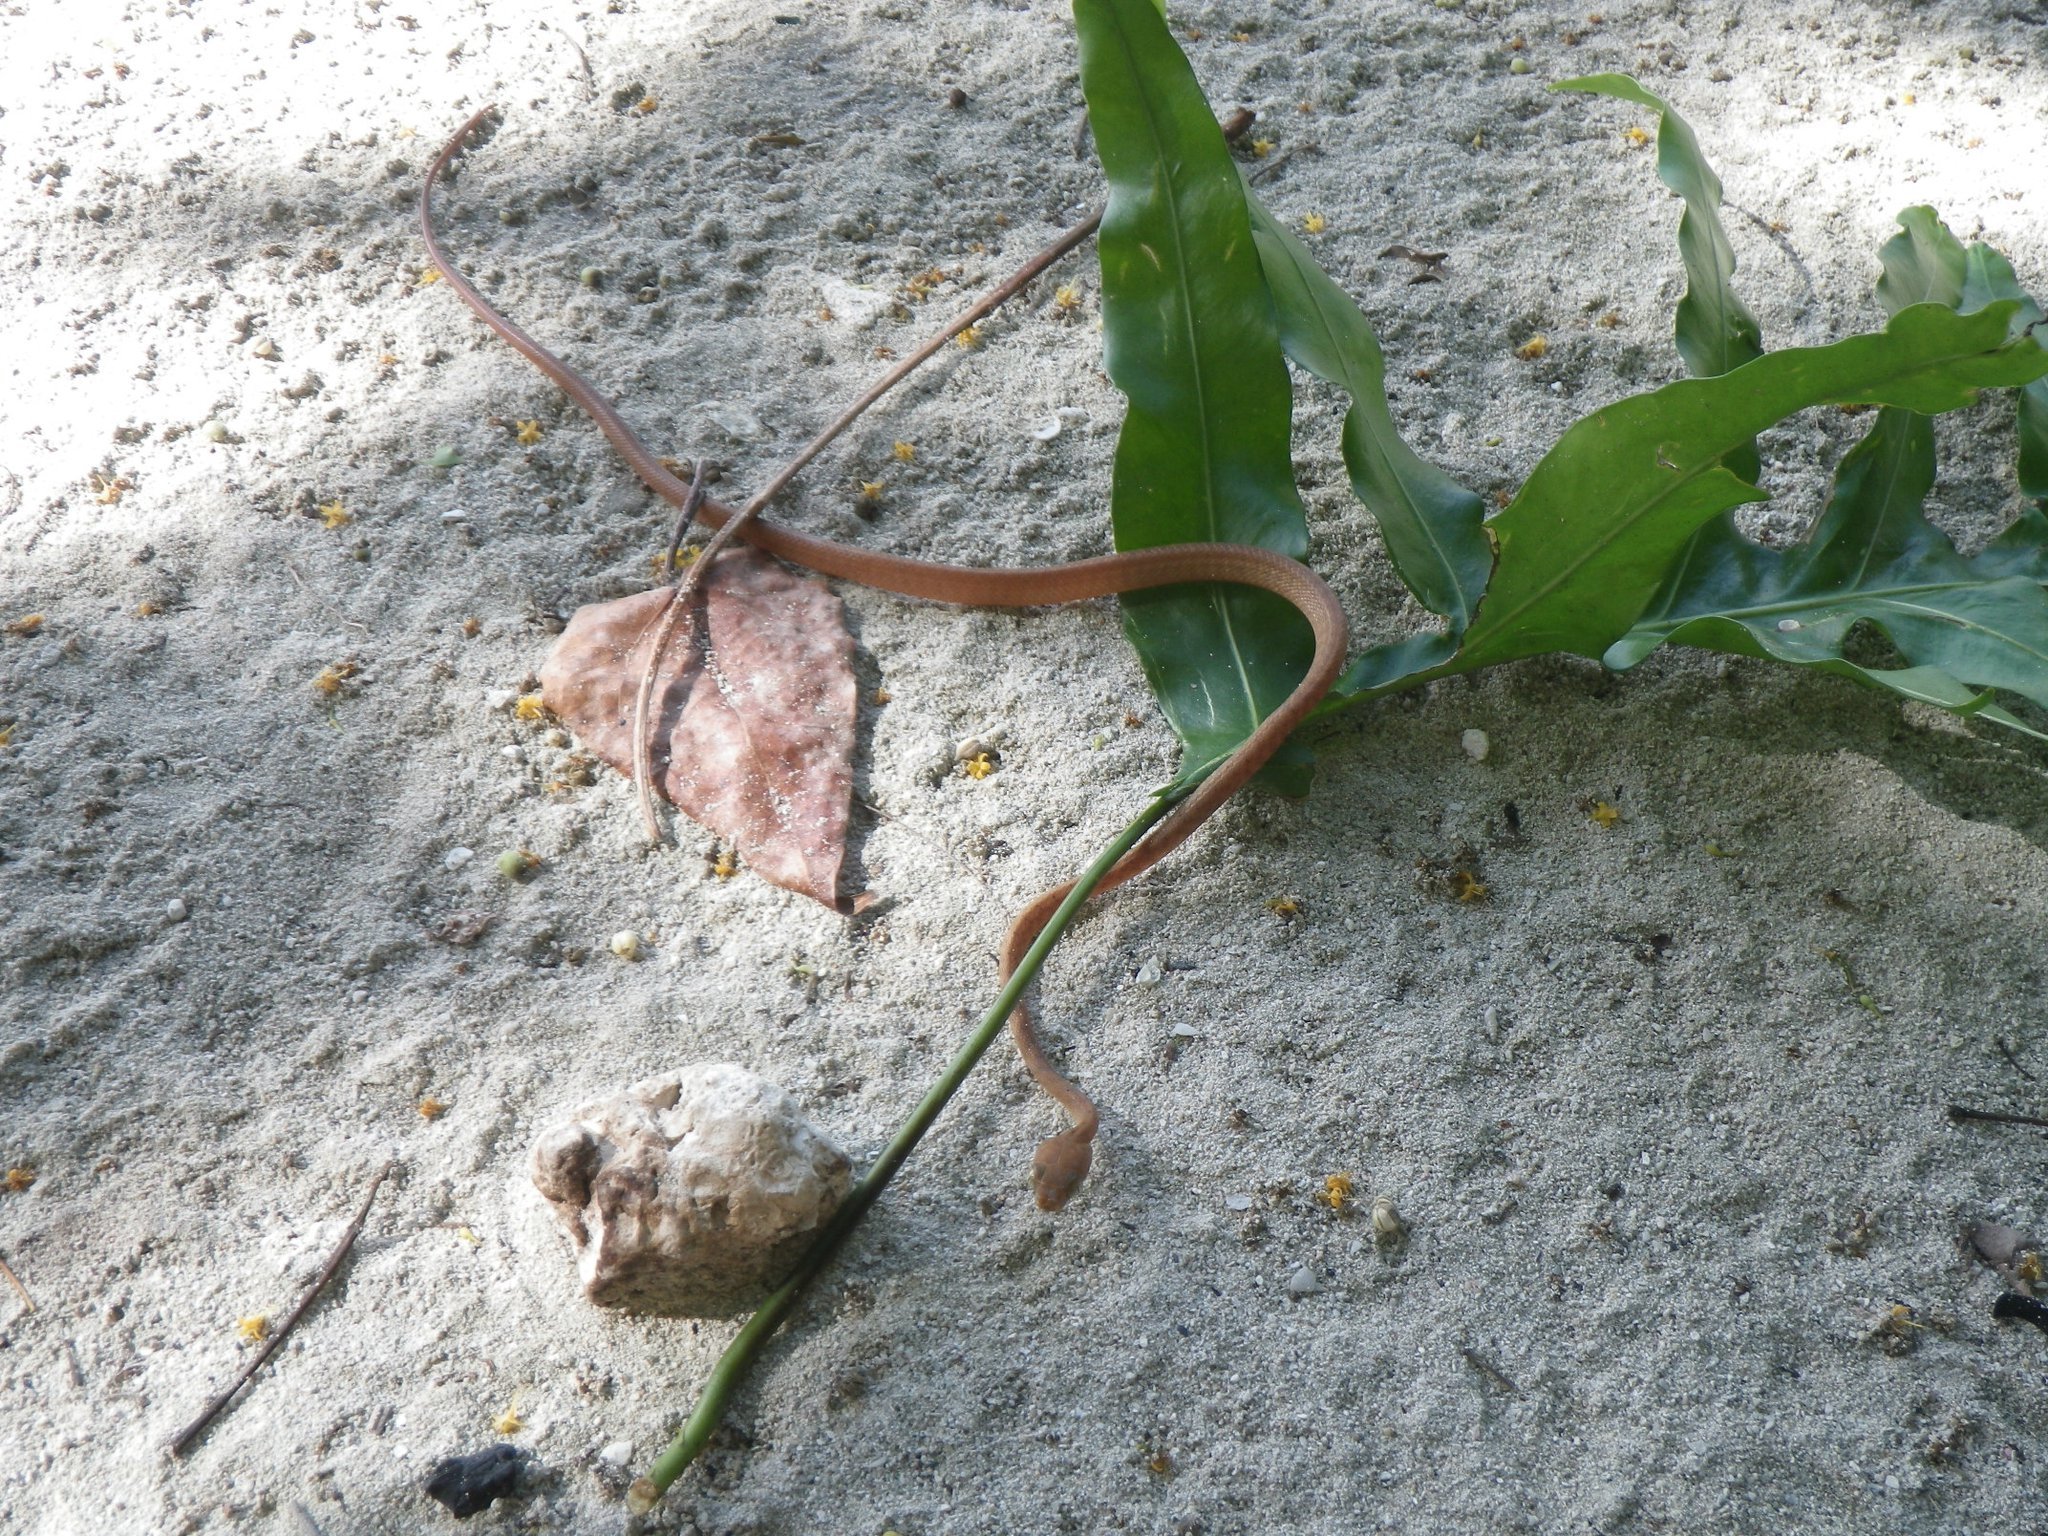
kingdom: Animalia
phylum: Chordata
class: Squamata
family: Colubridae
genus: Boiga
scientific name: Boiga irregularis
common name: Brown tree snake
